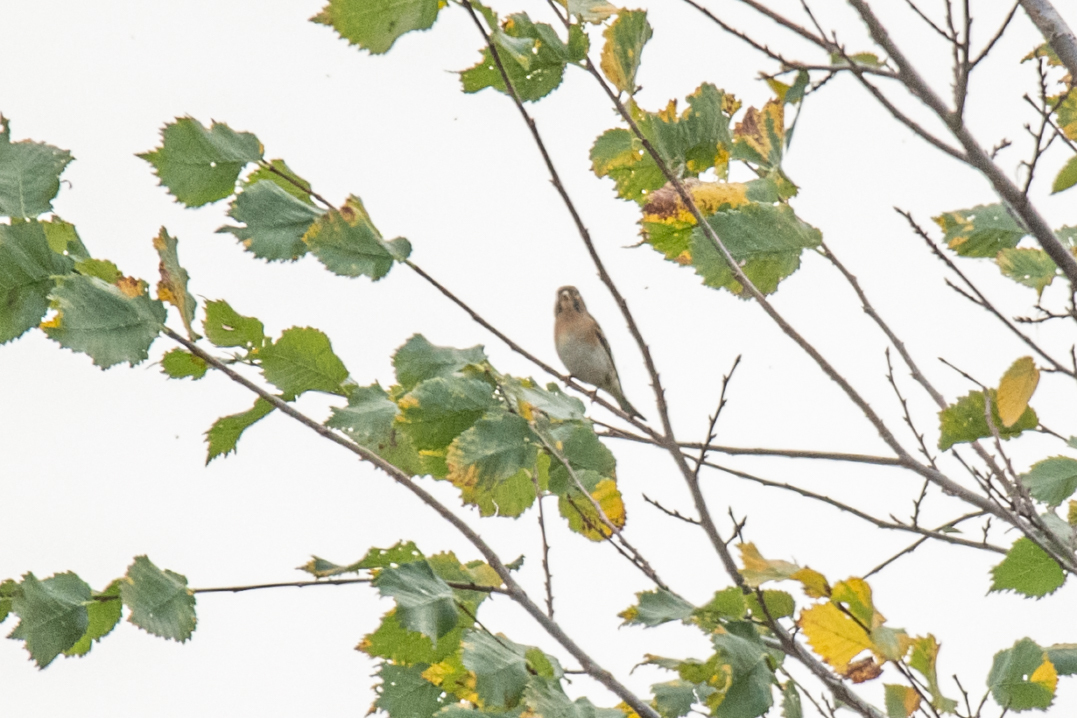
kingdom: Animalia
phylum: Chordata
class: Aves
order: Passeriformes
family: Fringillidae
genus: Fringilla
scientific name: Fringilla montifringilla
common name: Brambling
